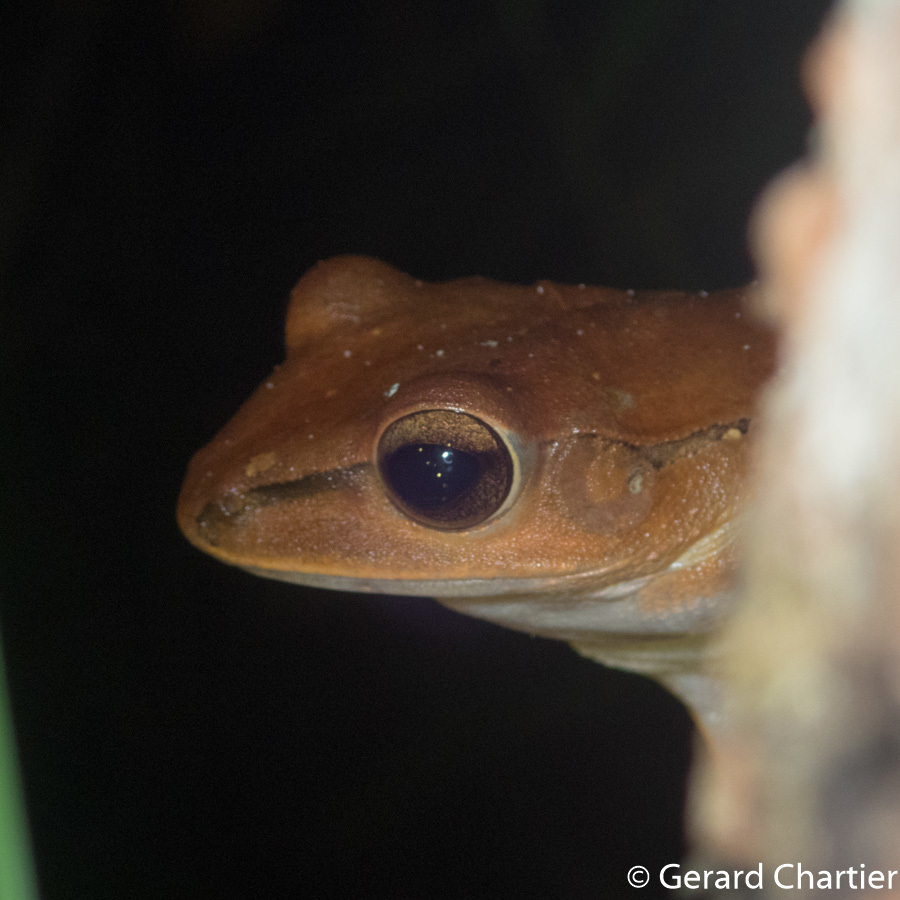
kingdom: Animalia
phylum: Chordata
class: Amphibia
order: Anura
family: Rhacophoridae
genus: Polypedates
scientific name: Polypedates megacephalus
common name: Hong kong whipping frog
